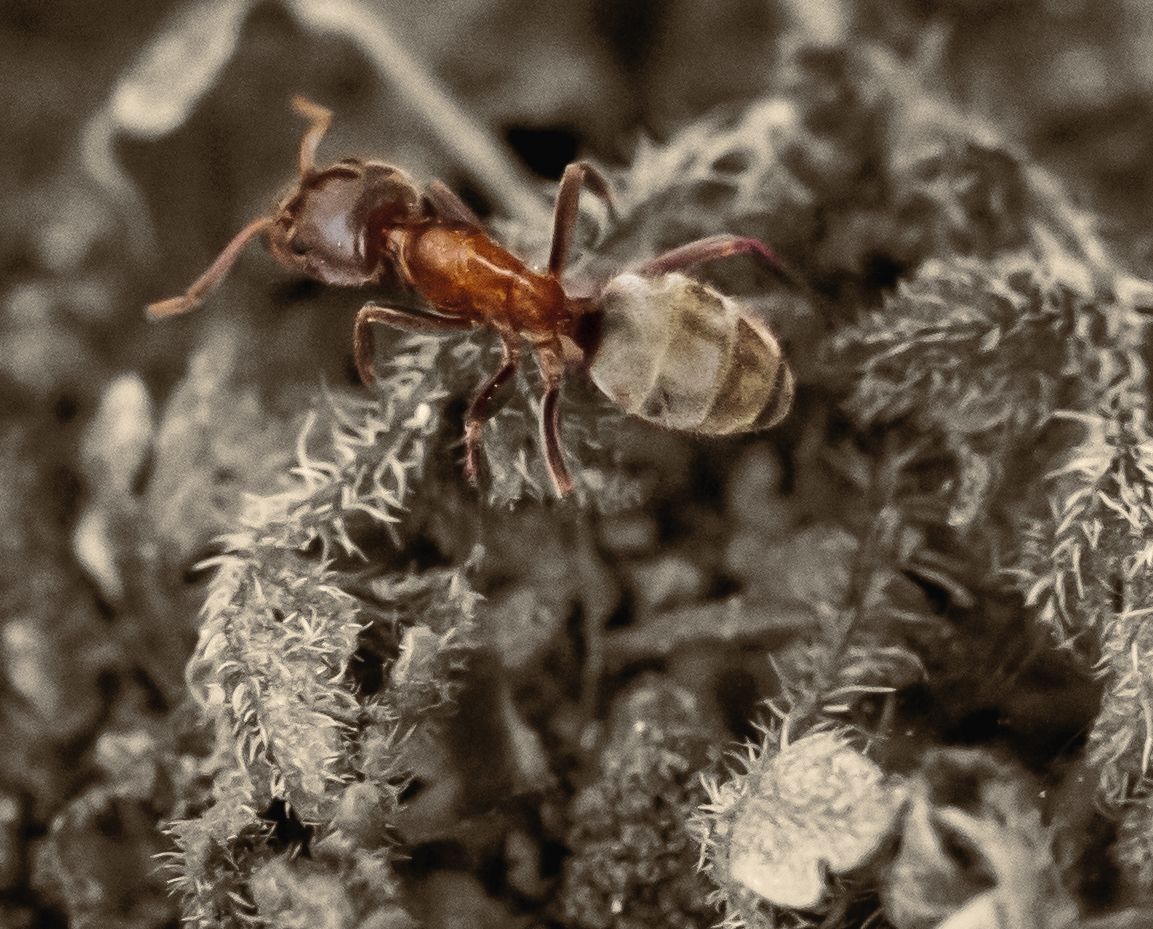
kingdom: Animalia
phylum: Arthropoda
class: Insecta
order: Hymenoptera
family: Formicidae
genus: Liometopum
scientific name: Liometopum occidentale
